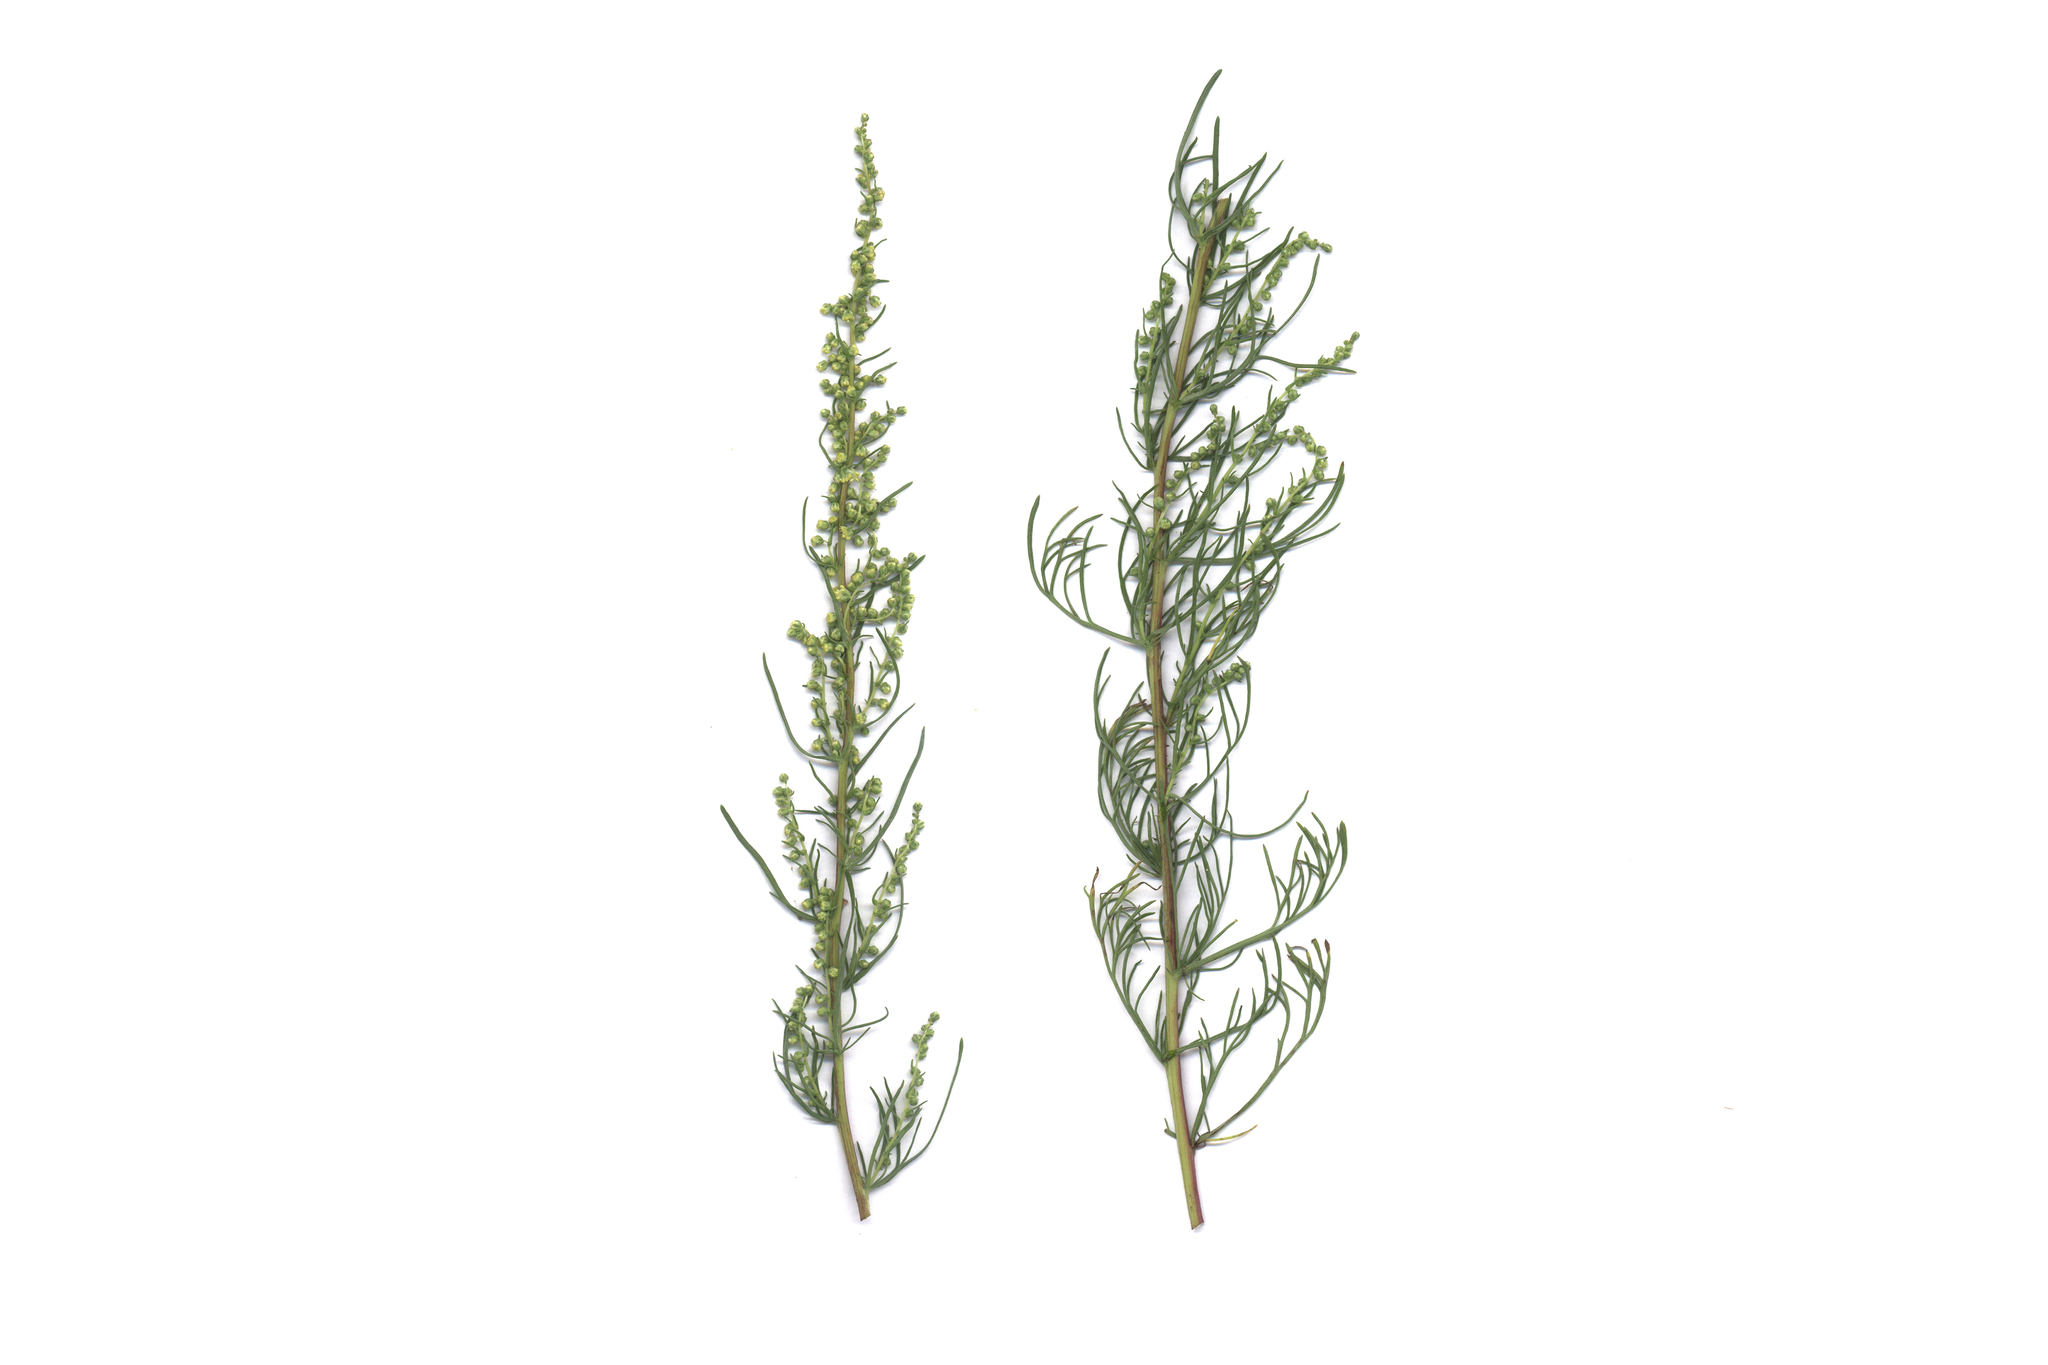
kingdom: Plantae
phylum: Tracheophyta
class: Magnoliopsida
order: Asterales
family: Asteraceae
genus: Artemisia
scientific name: Artemisia campestris
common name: Field wormwood
